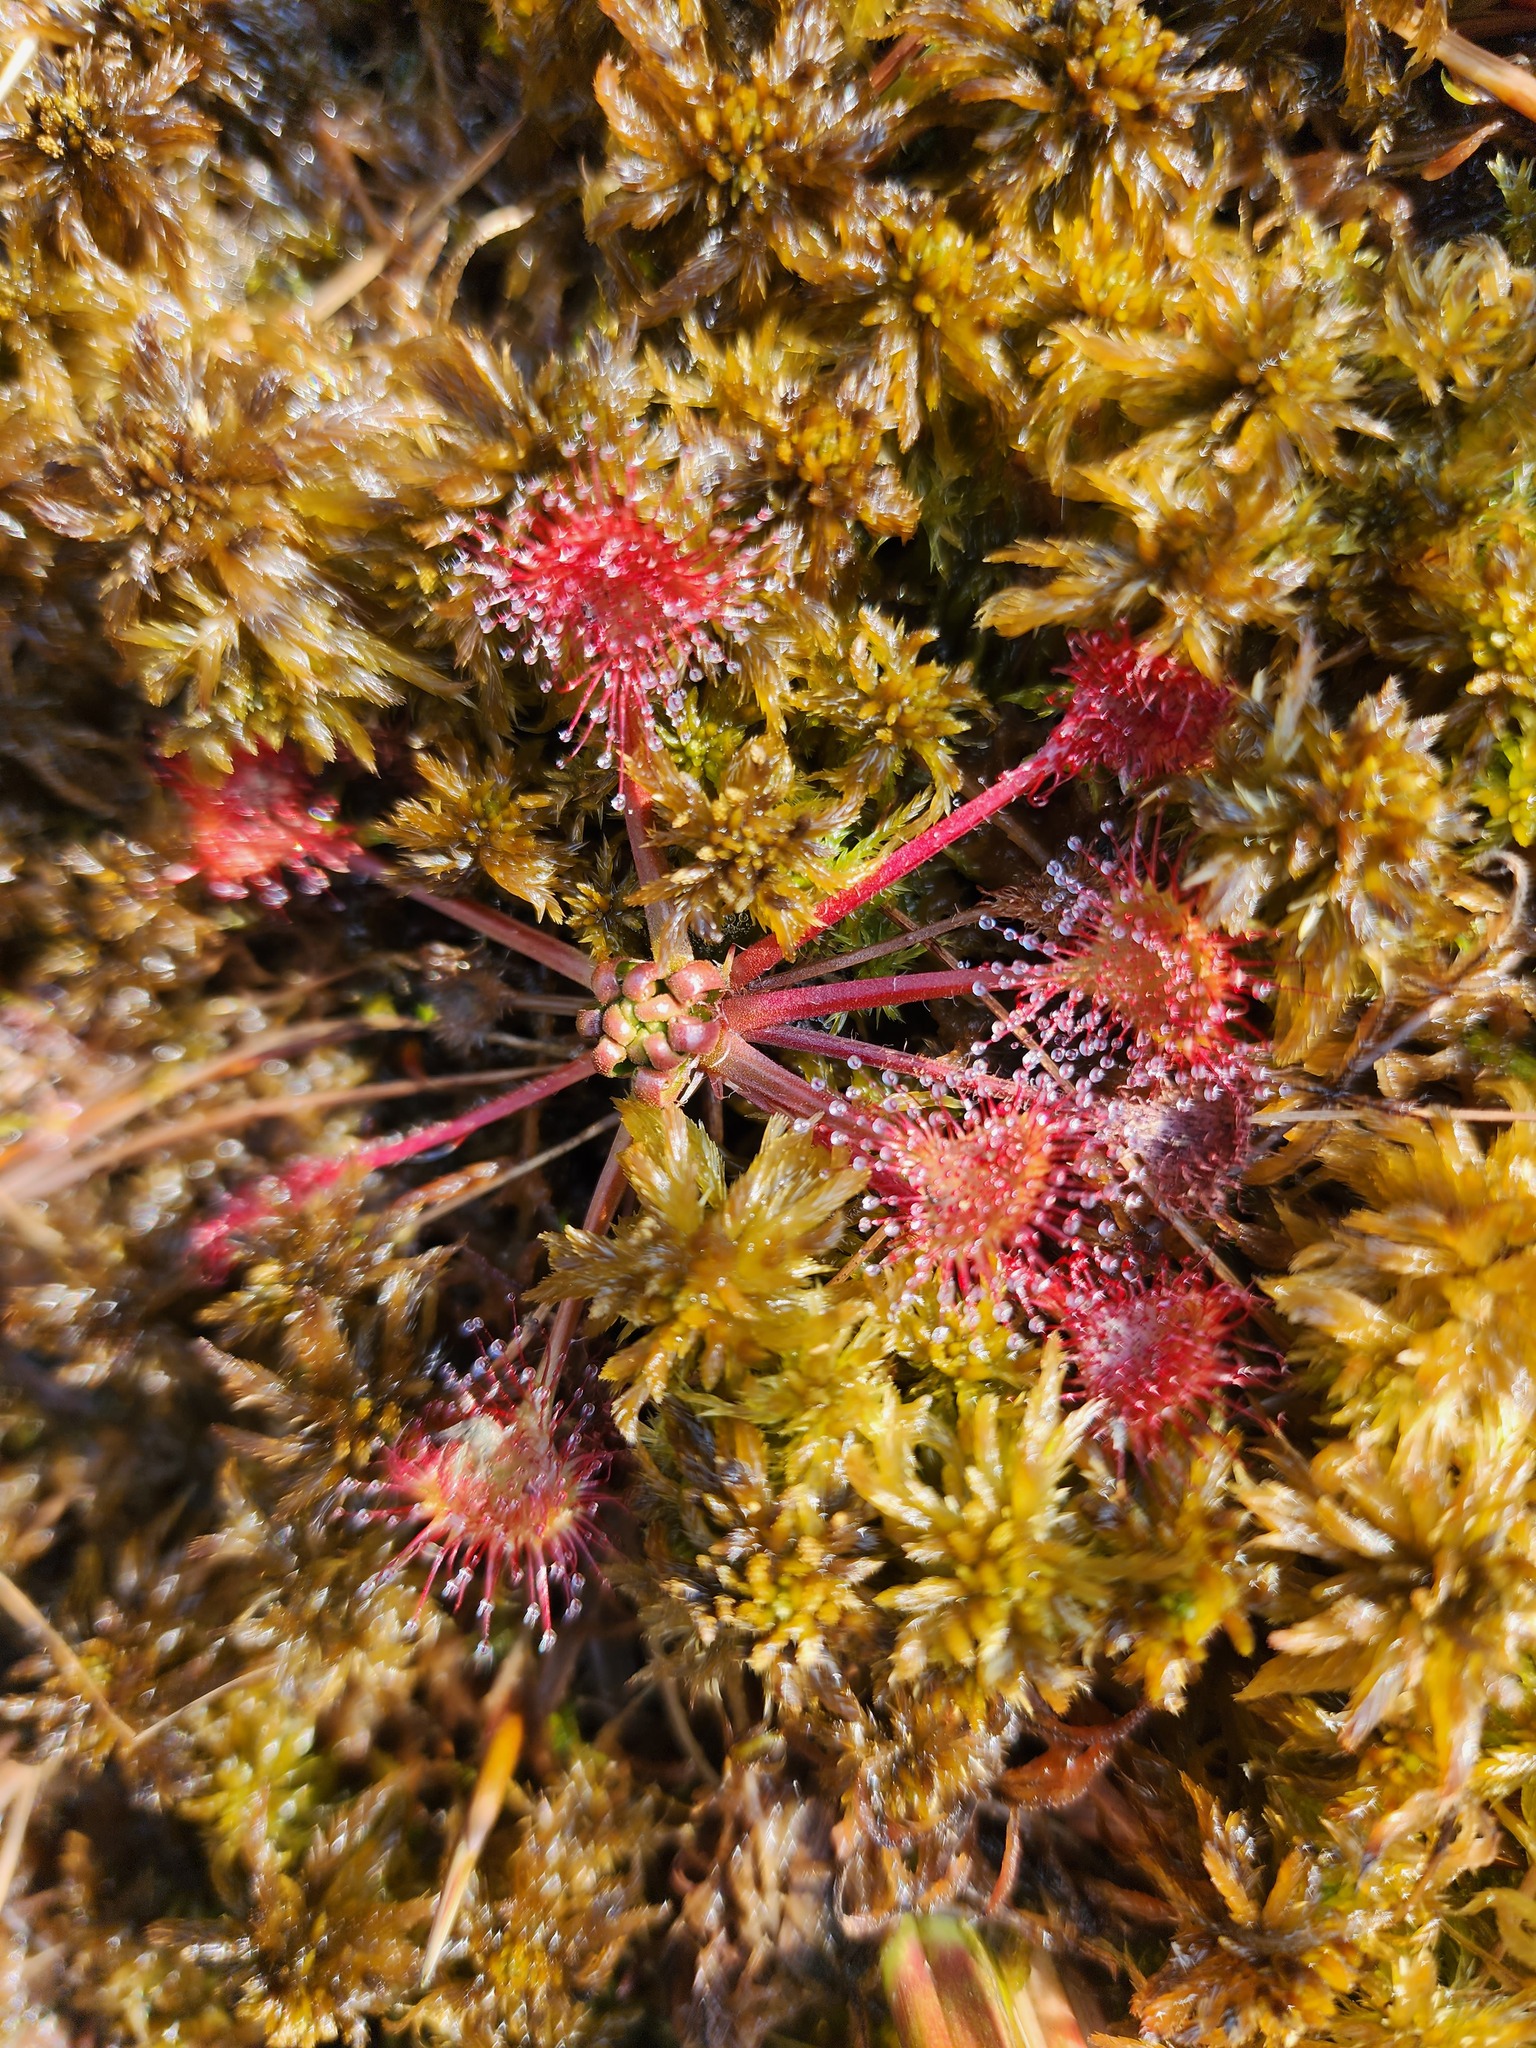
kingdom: Plantae
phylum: Tracheophyta
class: Magnoliopsida
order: Caryophyllales
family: Droseraceae
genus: Drosera
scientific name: Drosera rotundifolia
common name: Round-leaved sundew
